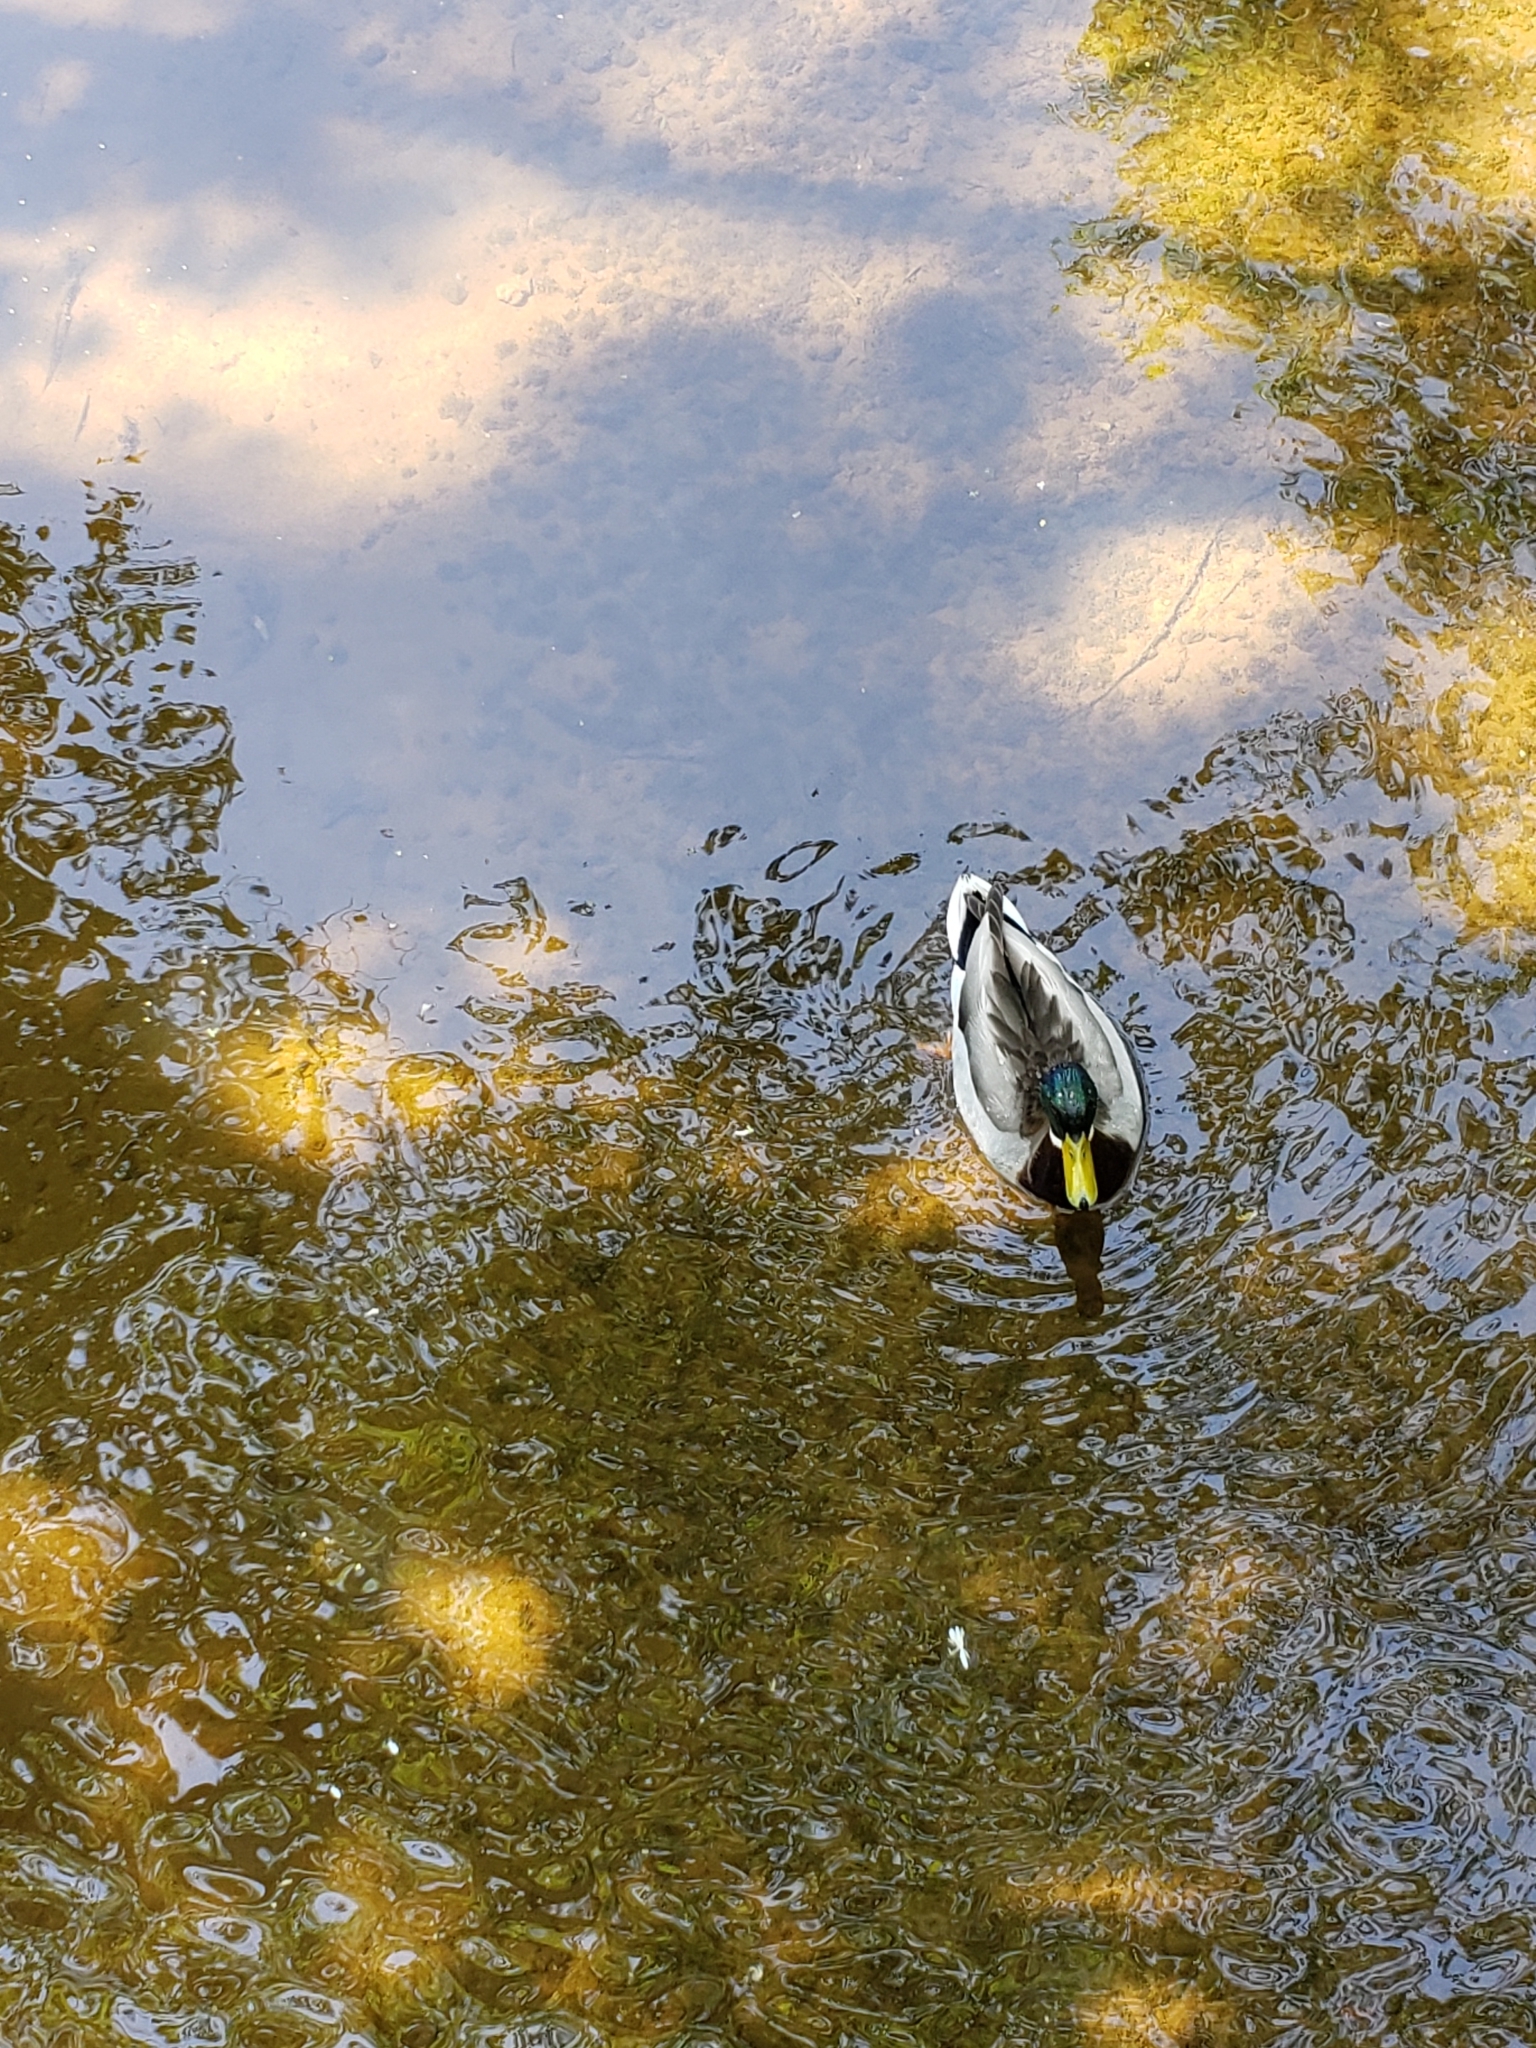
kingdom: Animalia
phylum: Chordata
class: Aves
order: Anseriformes
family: Anatidae
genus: Anas
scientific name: Anas platyrhynchos
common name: Mallard
